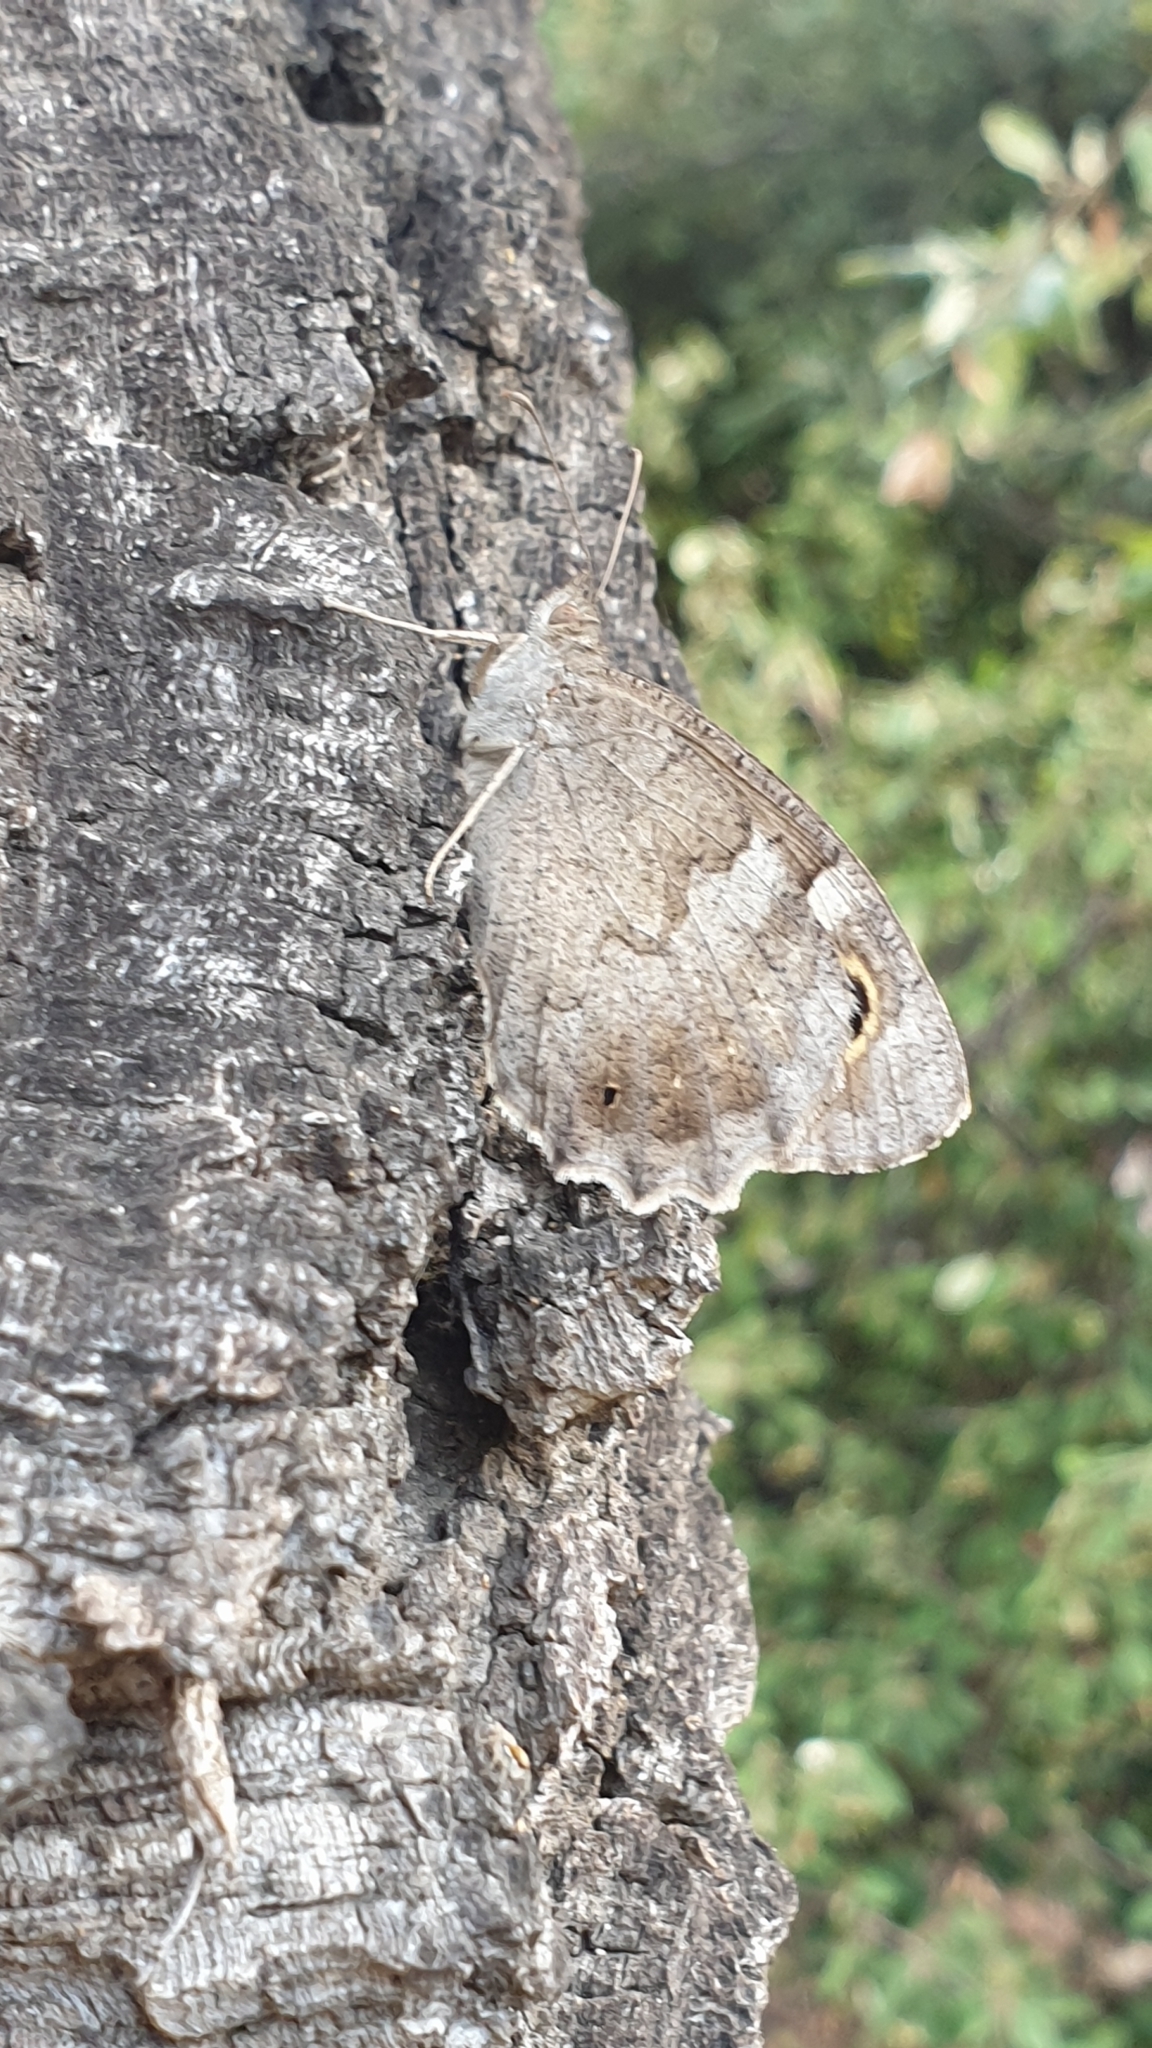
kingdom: Animalia
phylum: Arthropoda
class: Insecta
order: Lepidoptera
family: Nymphalidae
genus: Hipparchia
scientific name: Hipparchia statilinus
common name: Tree grayling
